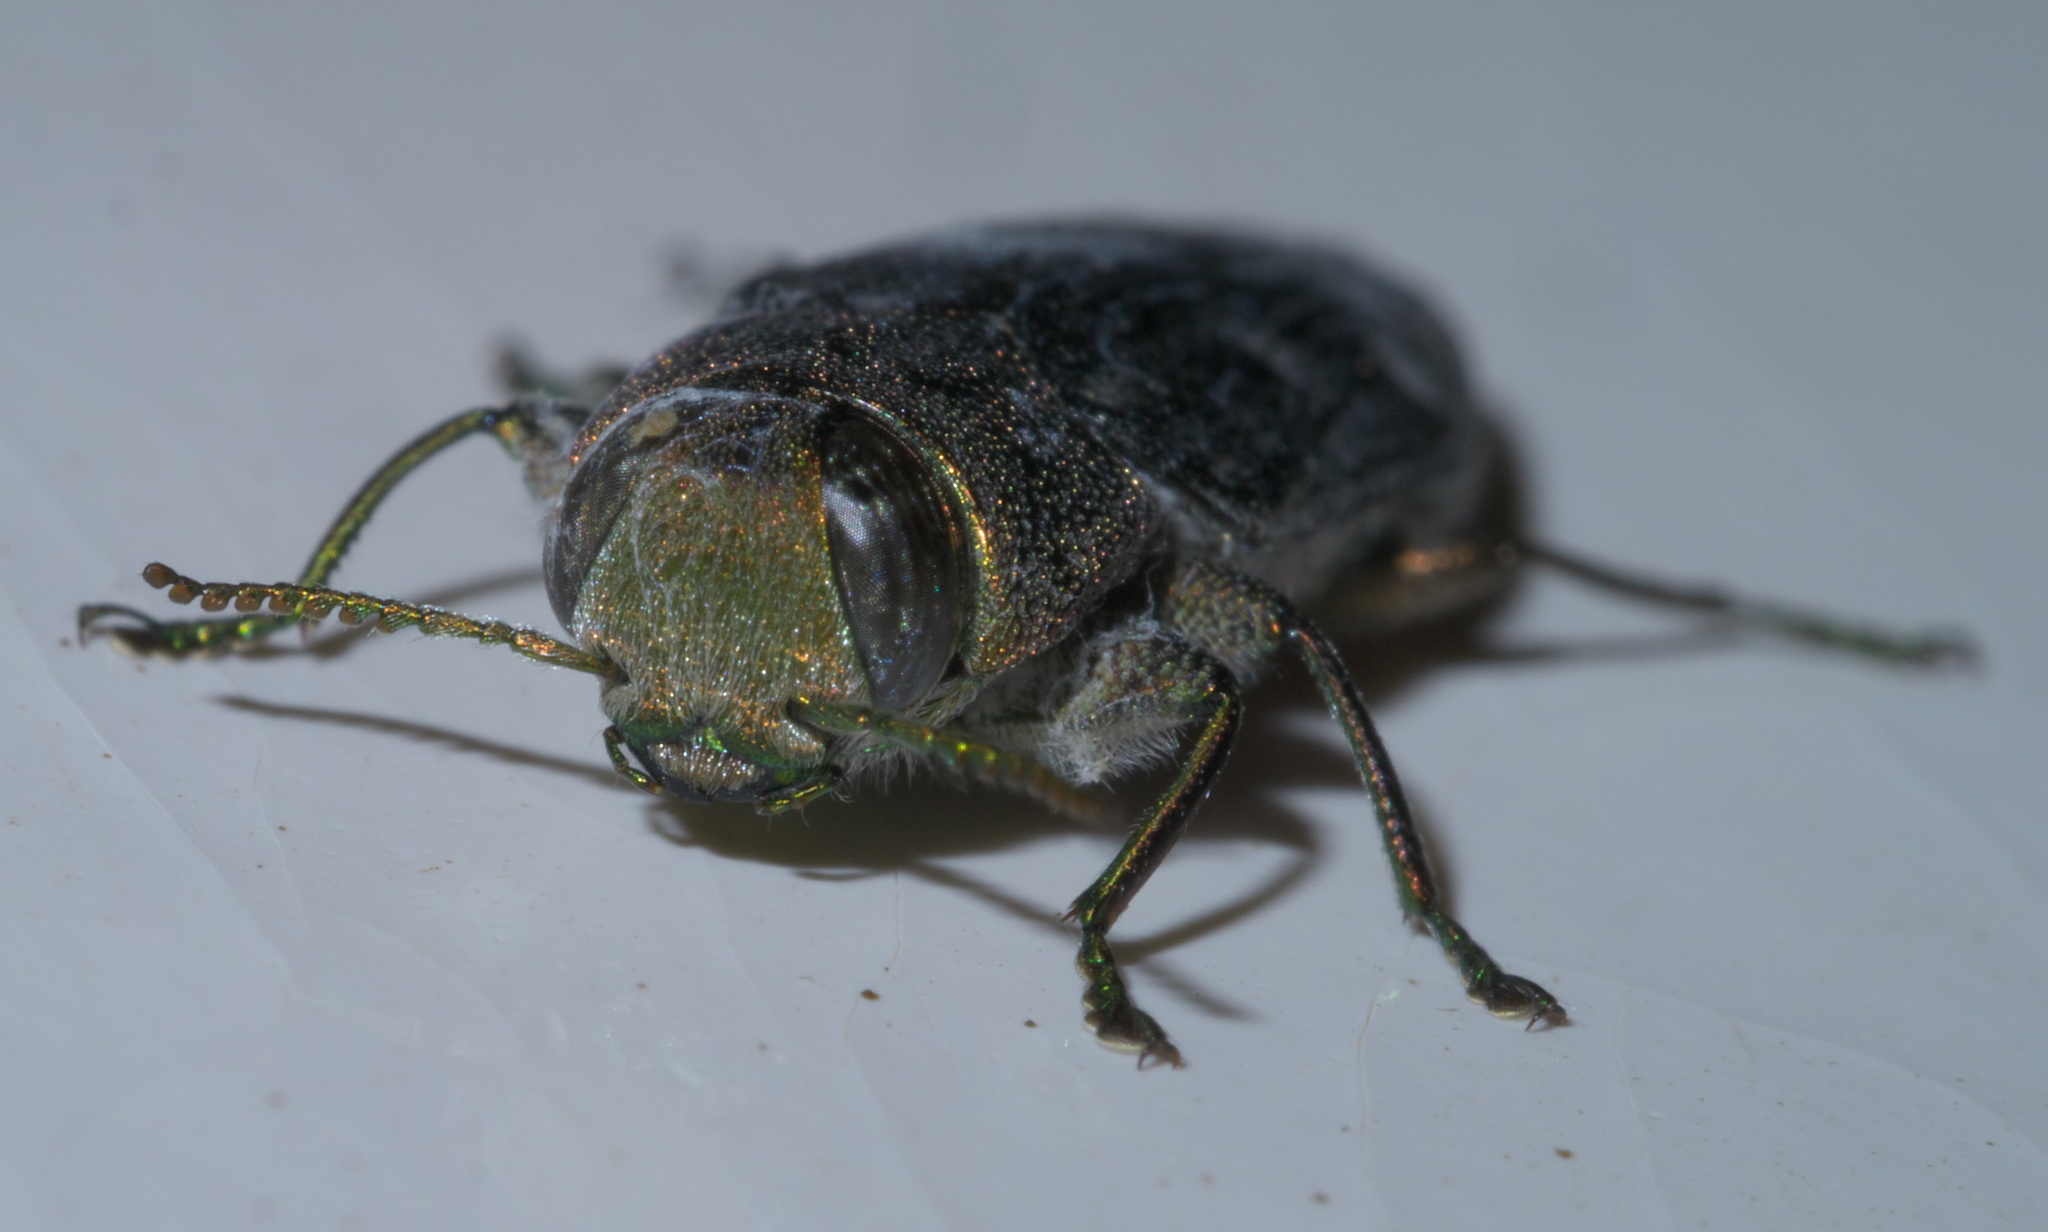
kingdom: Animalia
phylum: Arthropoda
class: Insecta
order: Coleoptera
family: Buprestidae
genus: Chrysobothris
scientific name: Chrysobothris viridiceps
